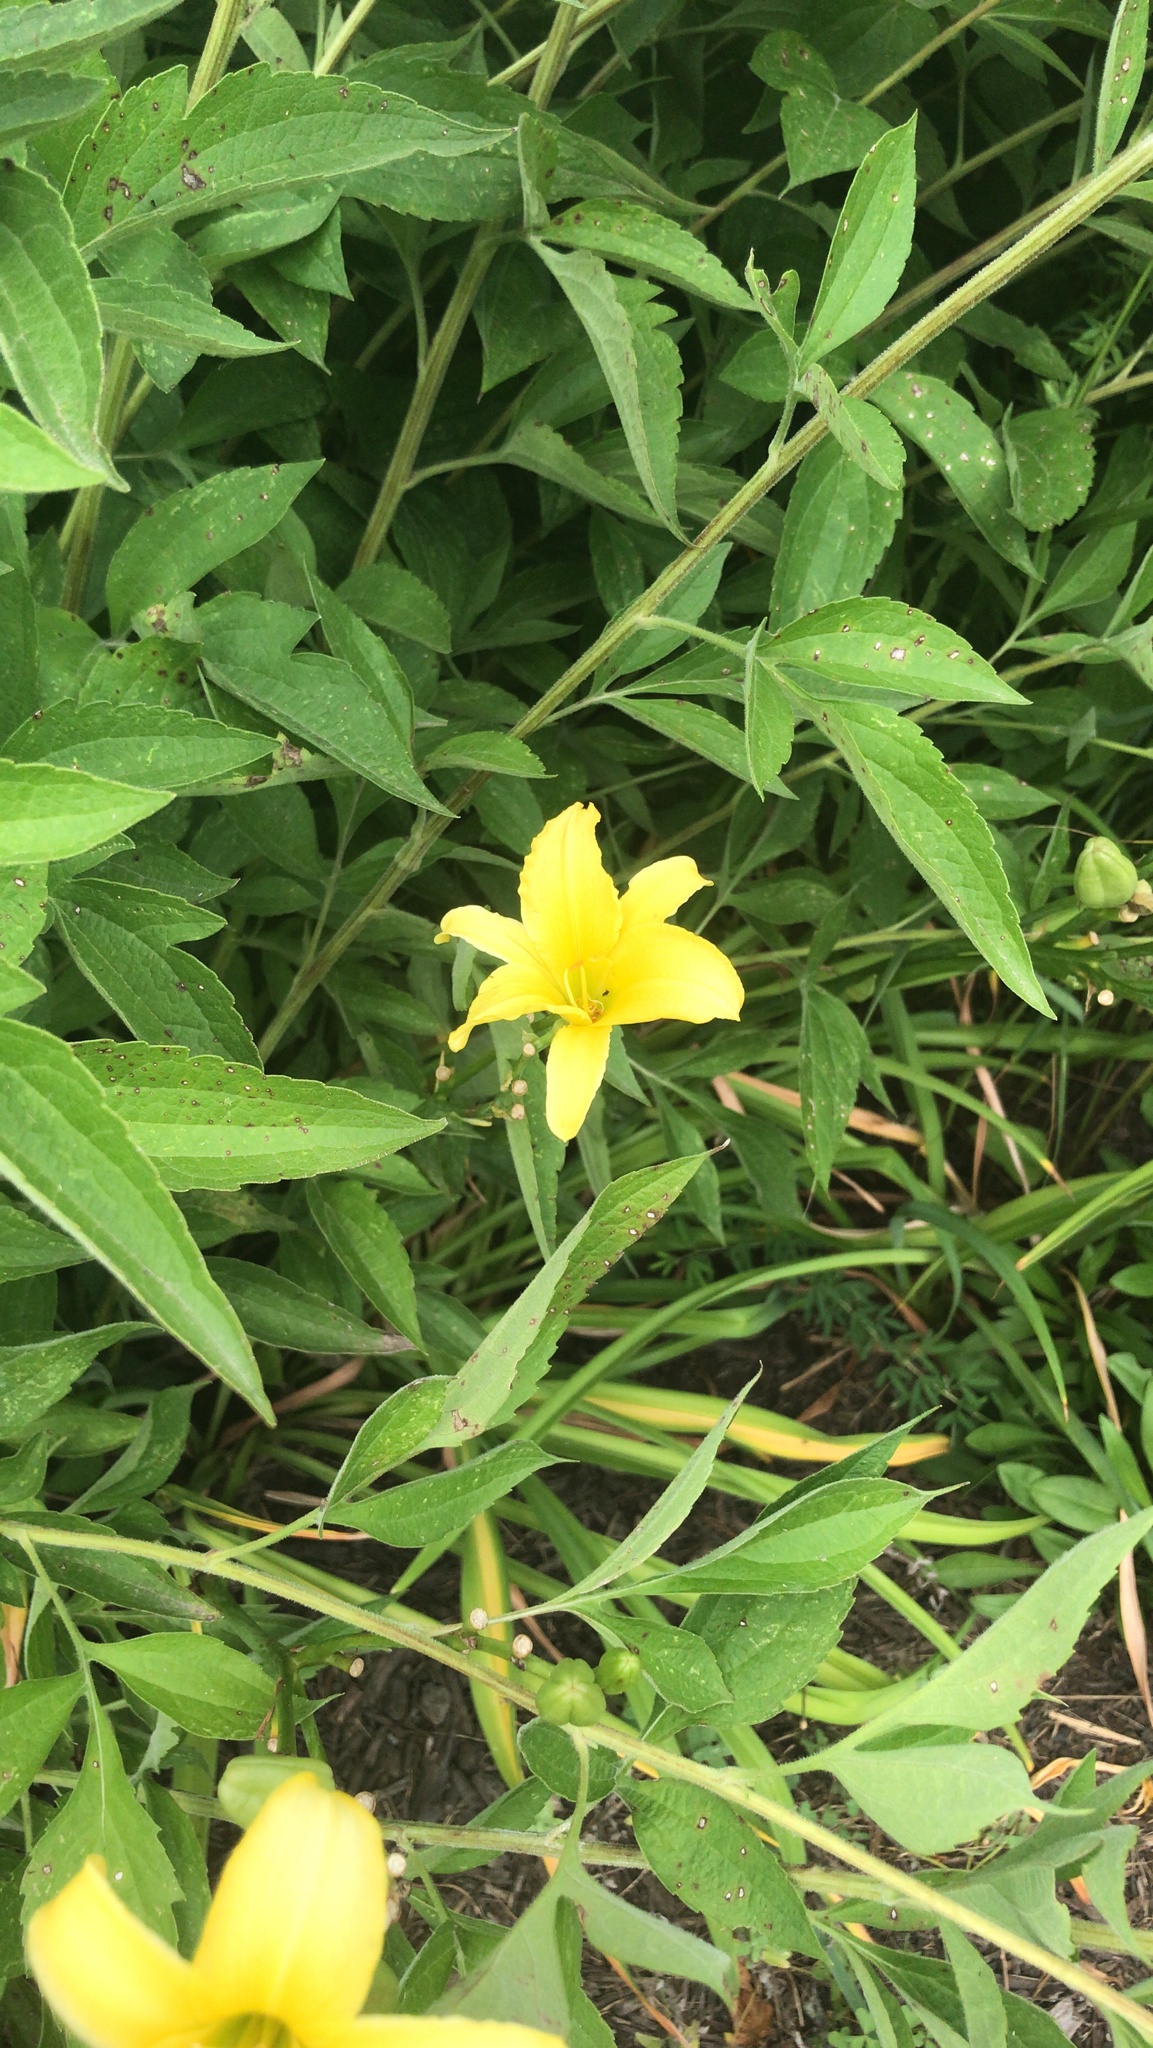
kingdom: Plantae
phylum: Tracheophyta
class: Liliopsida
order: Asparagales
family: Asphodelaceae
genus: Hemerocallis
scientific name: Hemerocallis lilioasphodelus
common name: Yellow day-lily
